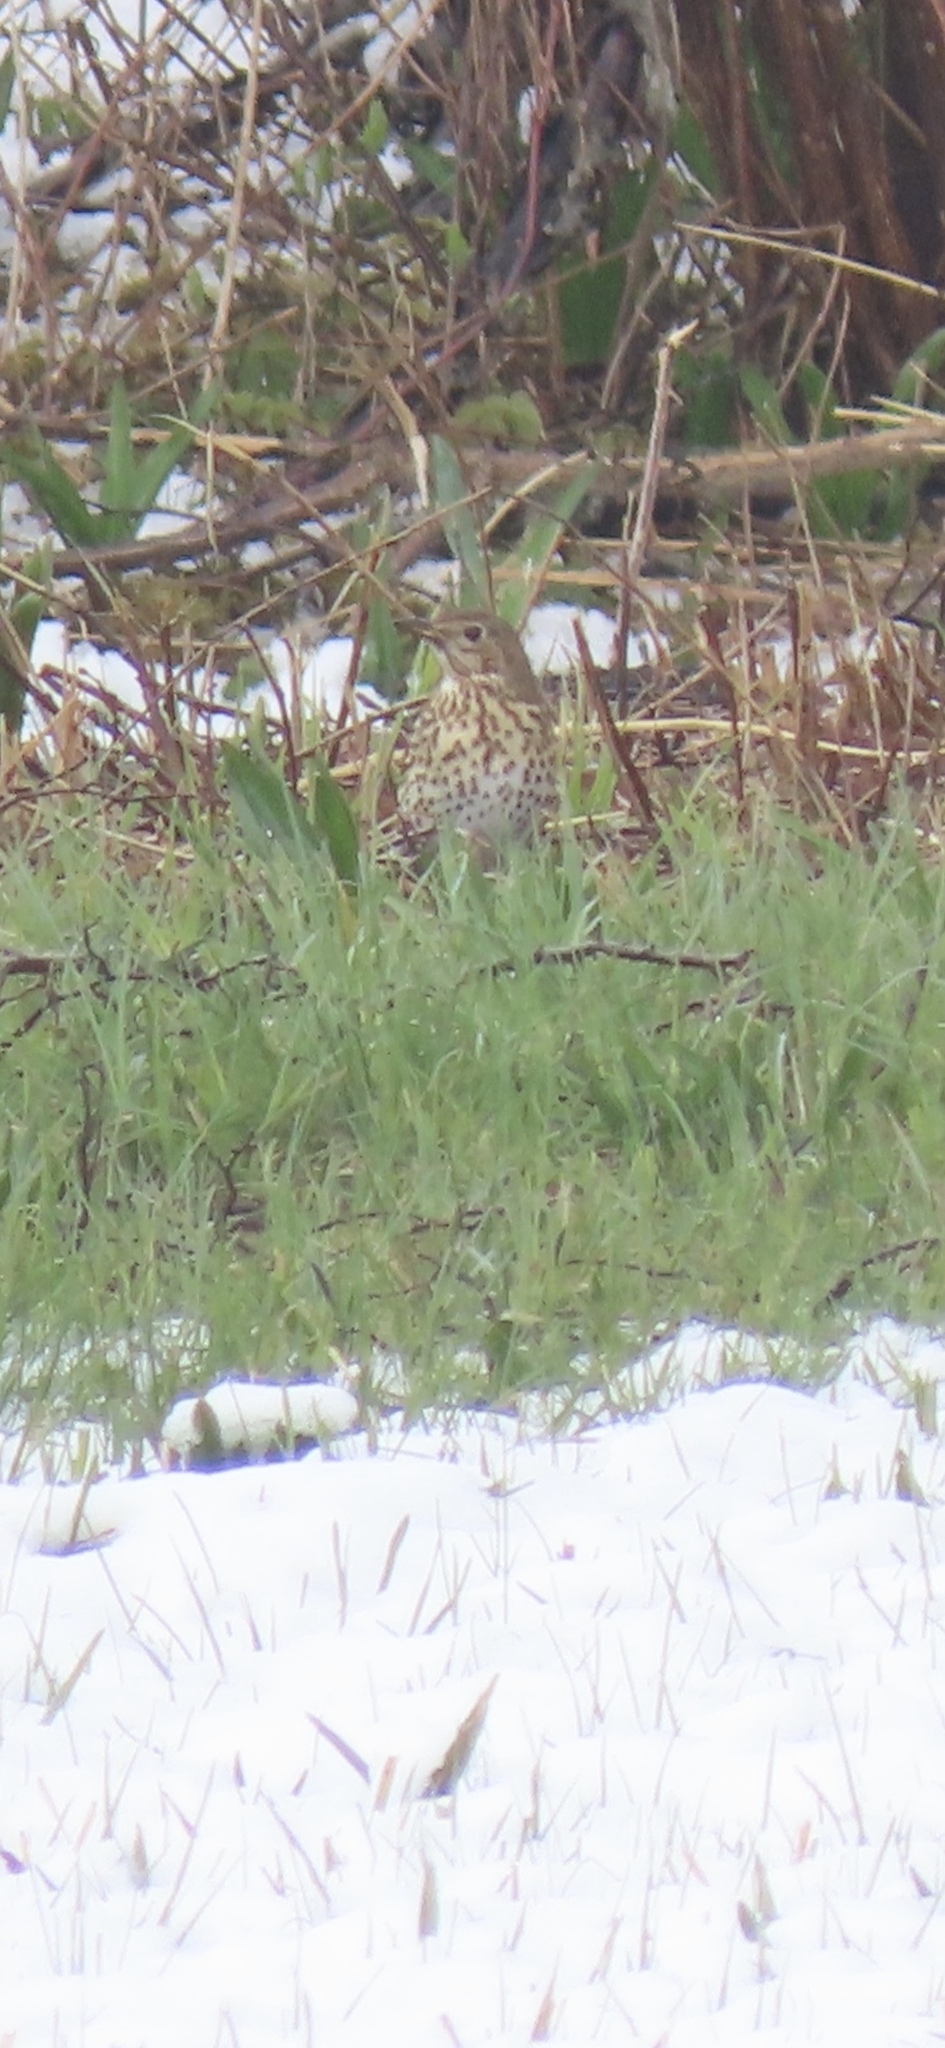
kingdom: Animalia
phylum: Chordata
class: Aves
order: Passeriformes
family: Turdidae
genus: Turdus
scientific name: Turdus philomelos
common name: Song thrush
